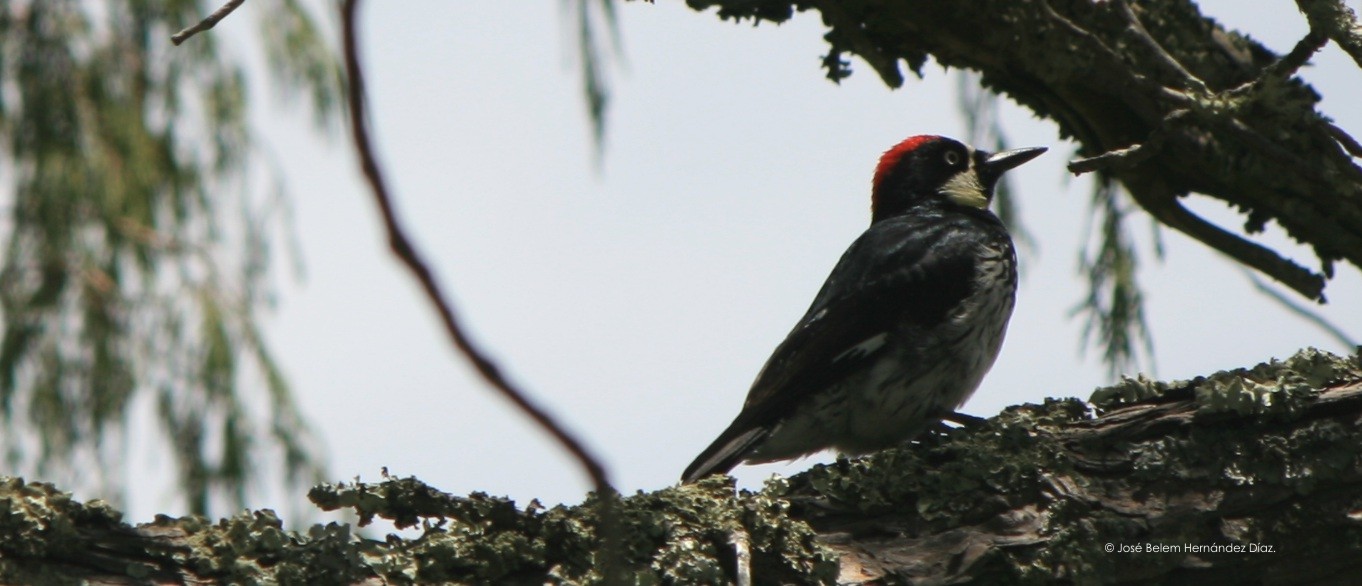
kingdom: Animalia
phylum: Chordata
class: Aves
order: Piciformes
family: Picidae
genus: Melanerpes
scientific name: Melanerpes formicivorus
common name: Acorn woodpecker
